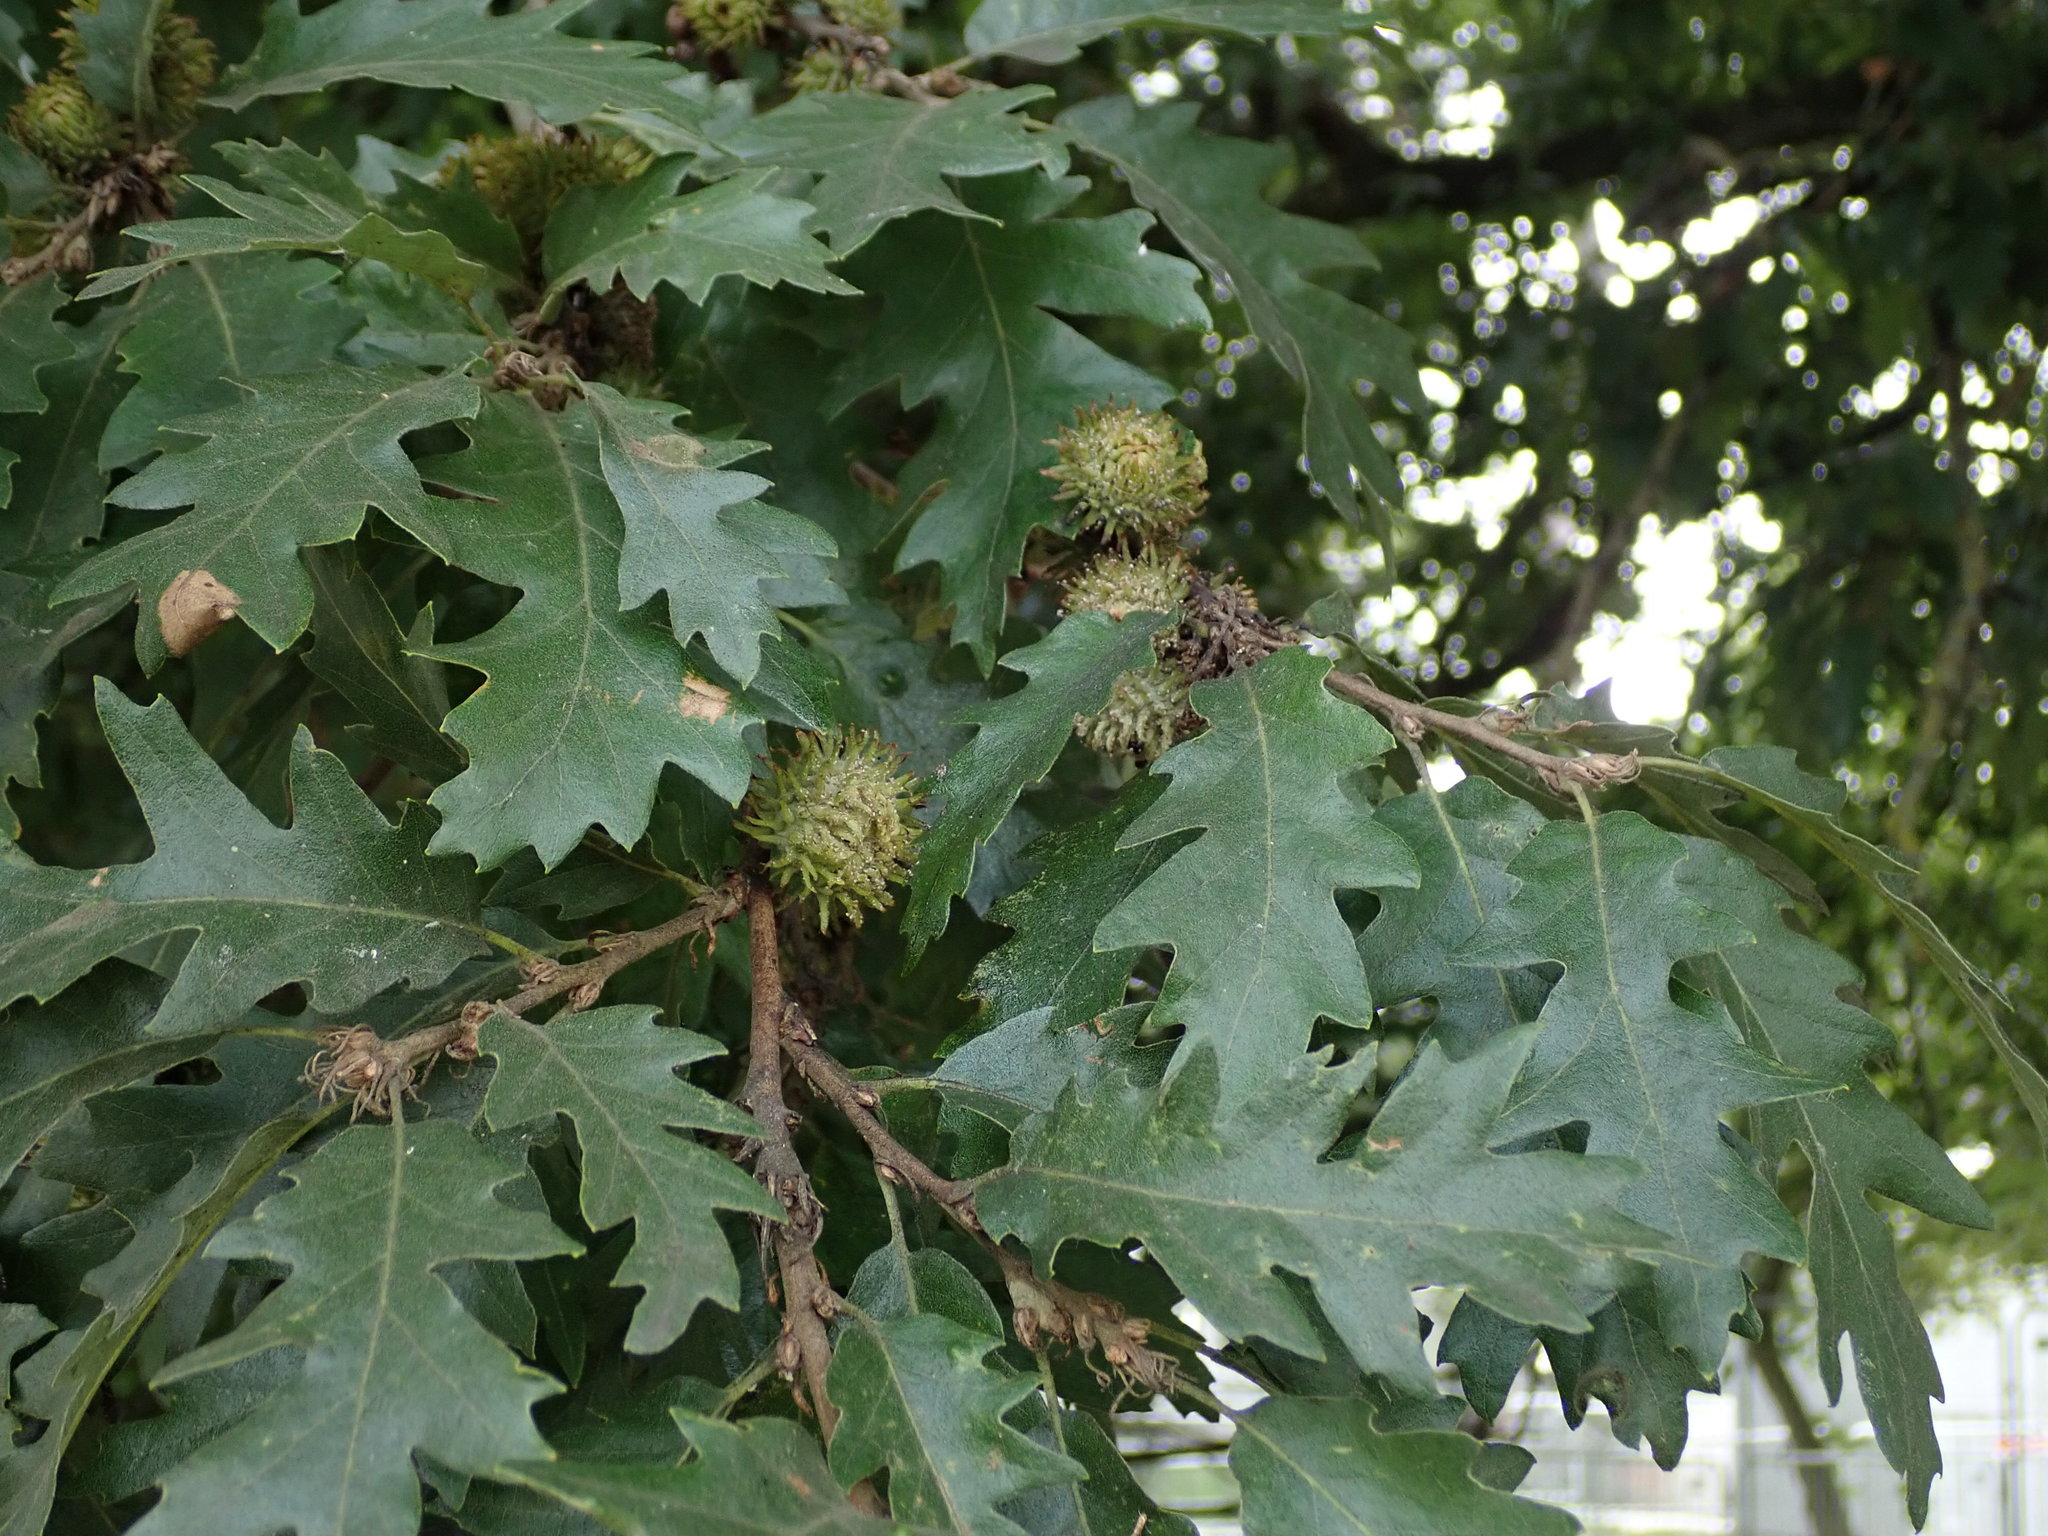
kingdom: Plantae
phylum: Tracheophyta
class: Magnoliopsida
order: Fagales
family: Fagaceae
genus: Quercus
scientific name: Quercus cerris
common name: Turkey oak
